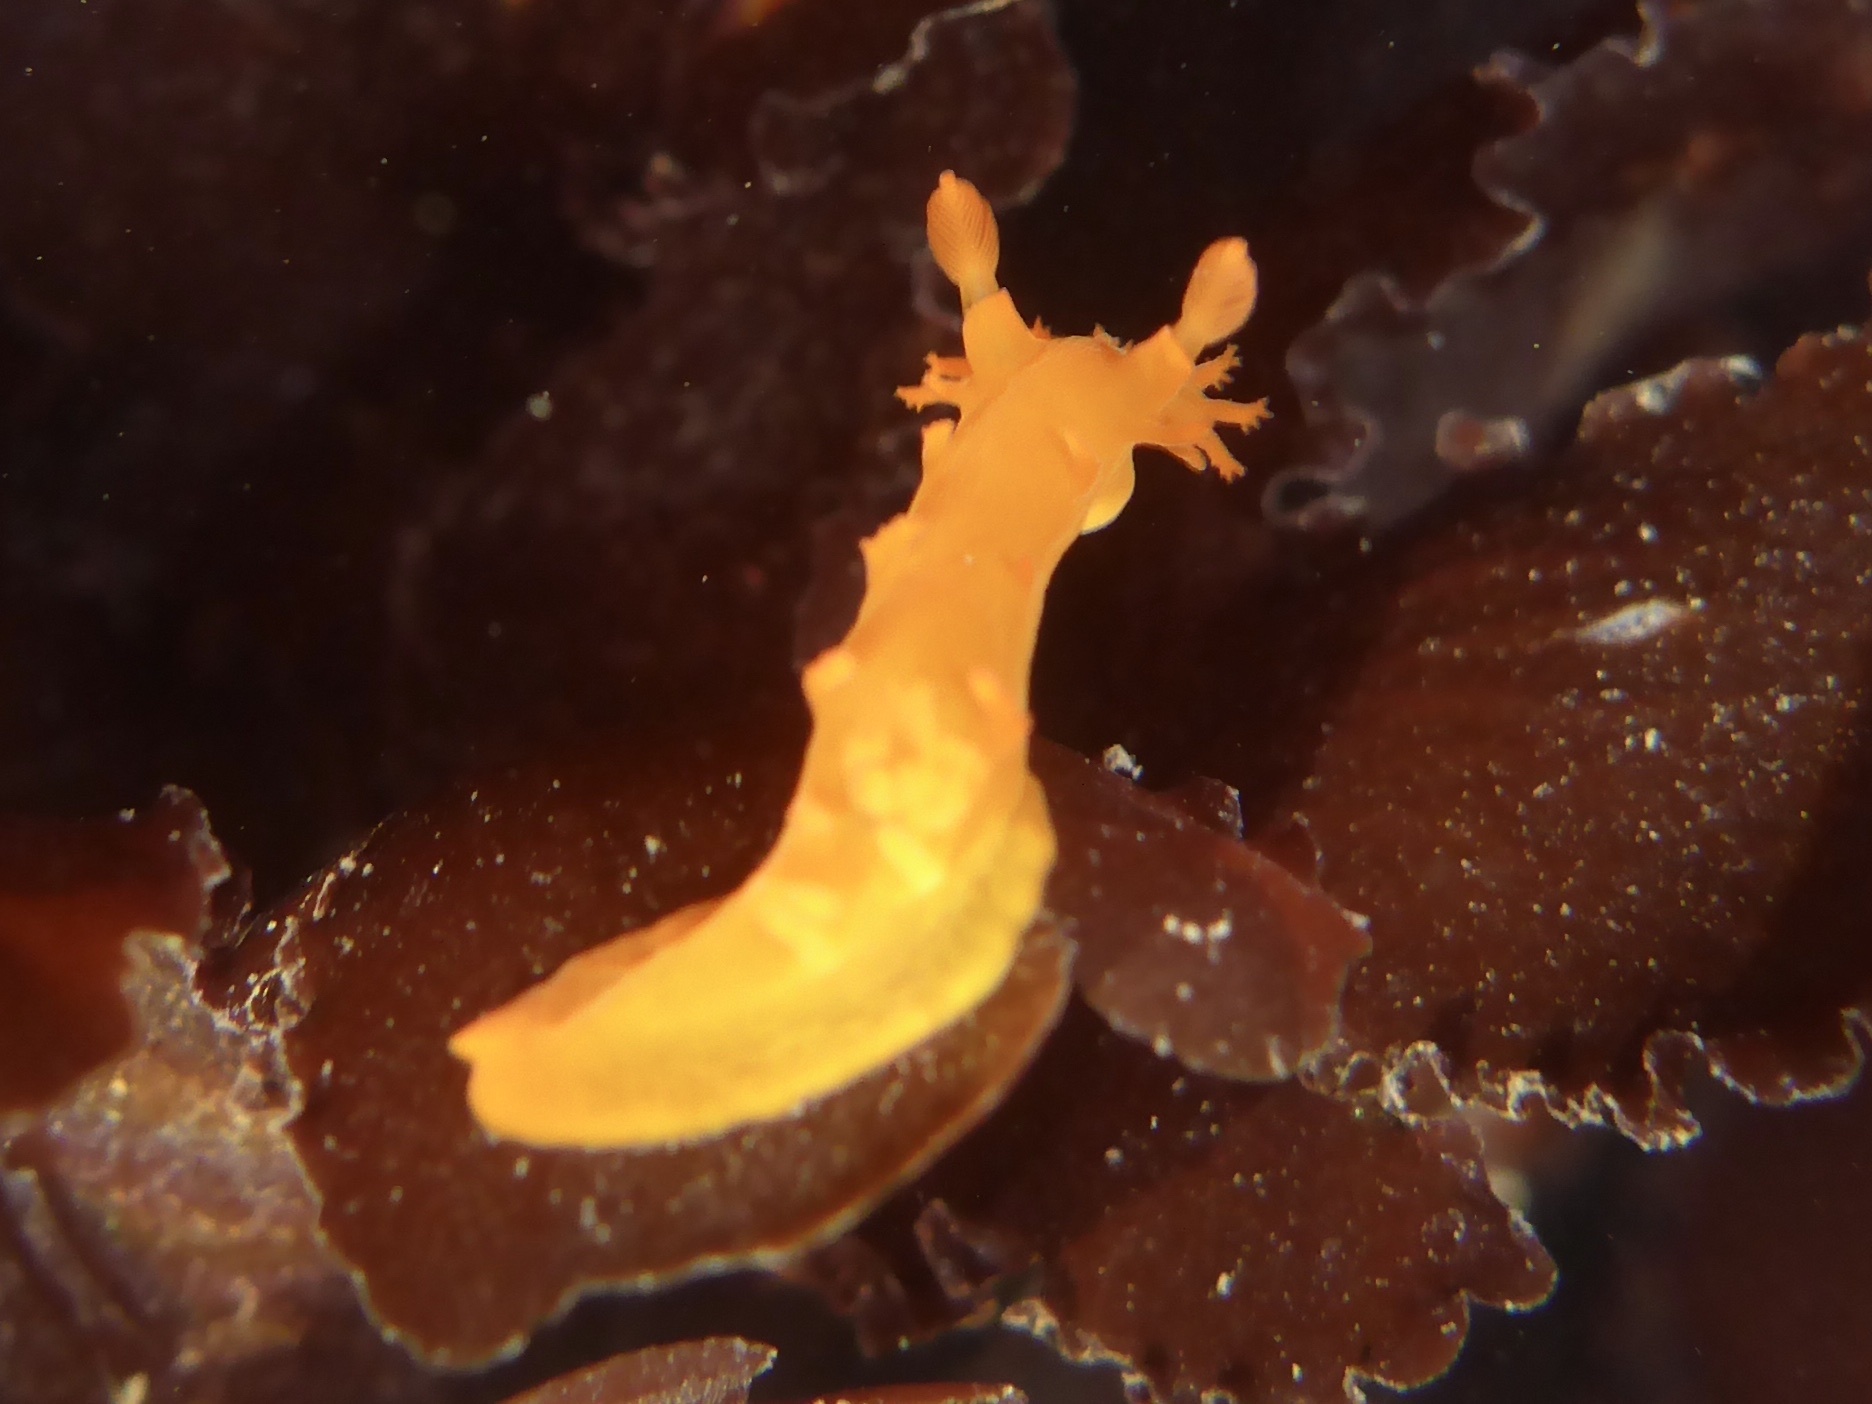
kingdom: Animalia
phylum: Mollusca
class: Gastropoda
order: Nudibranchia
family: Polyceridae
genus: Triopha
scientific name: Triopha maculata
